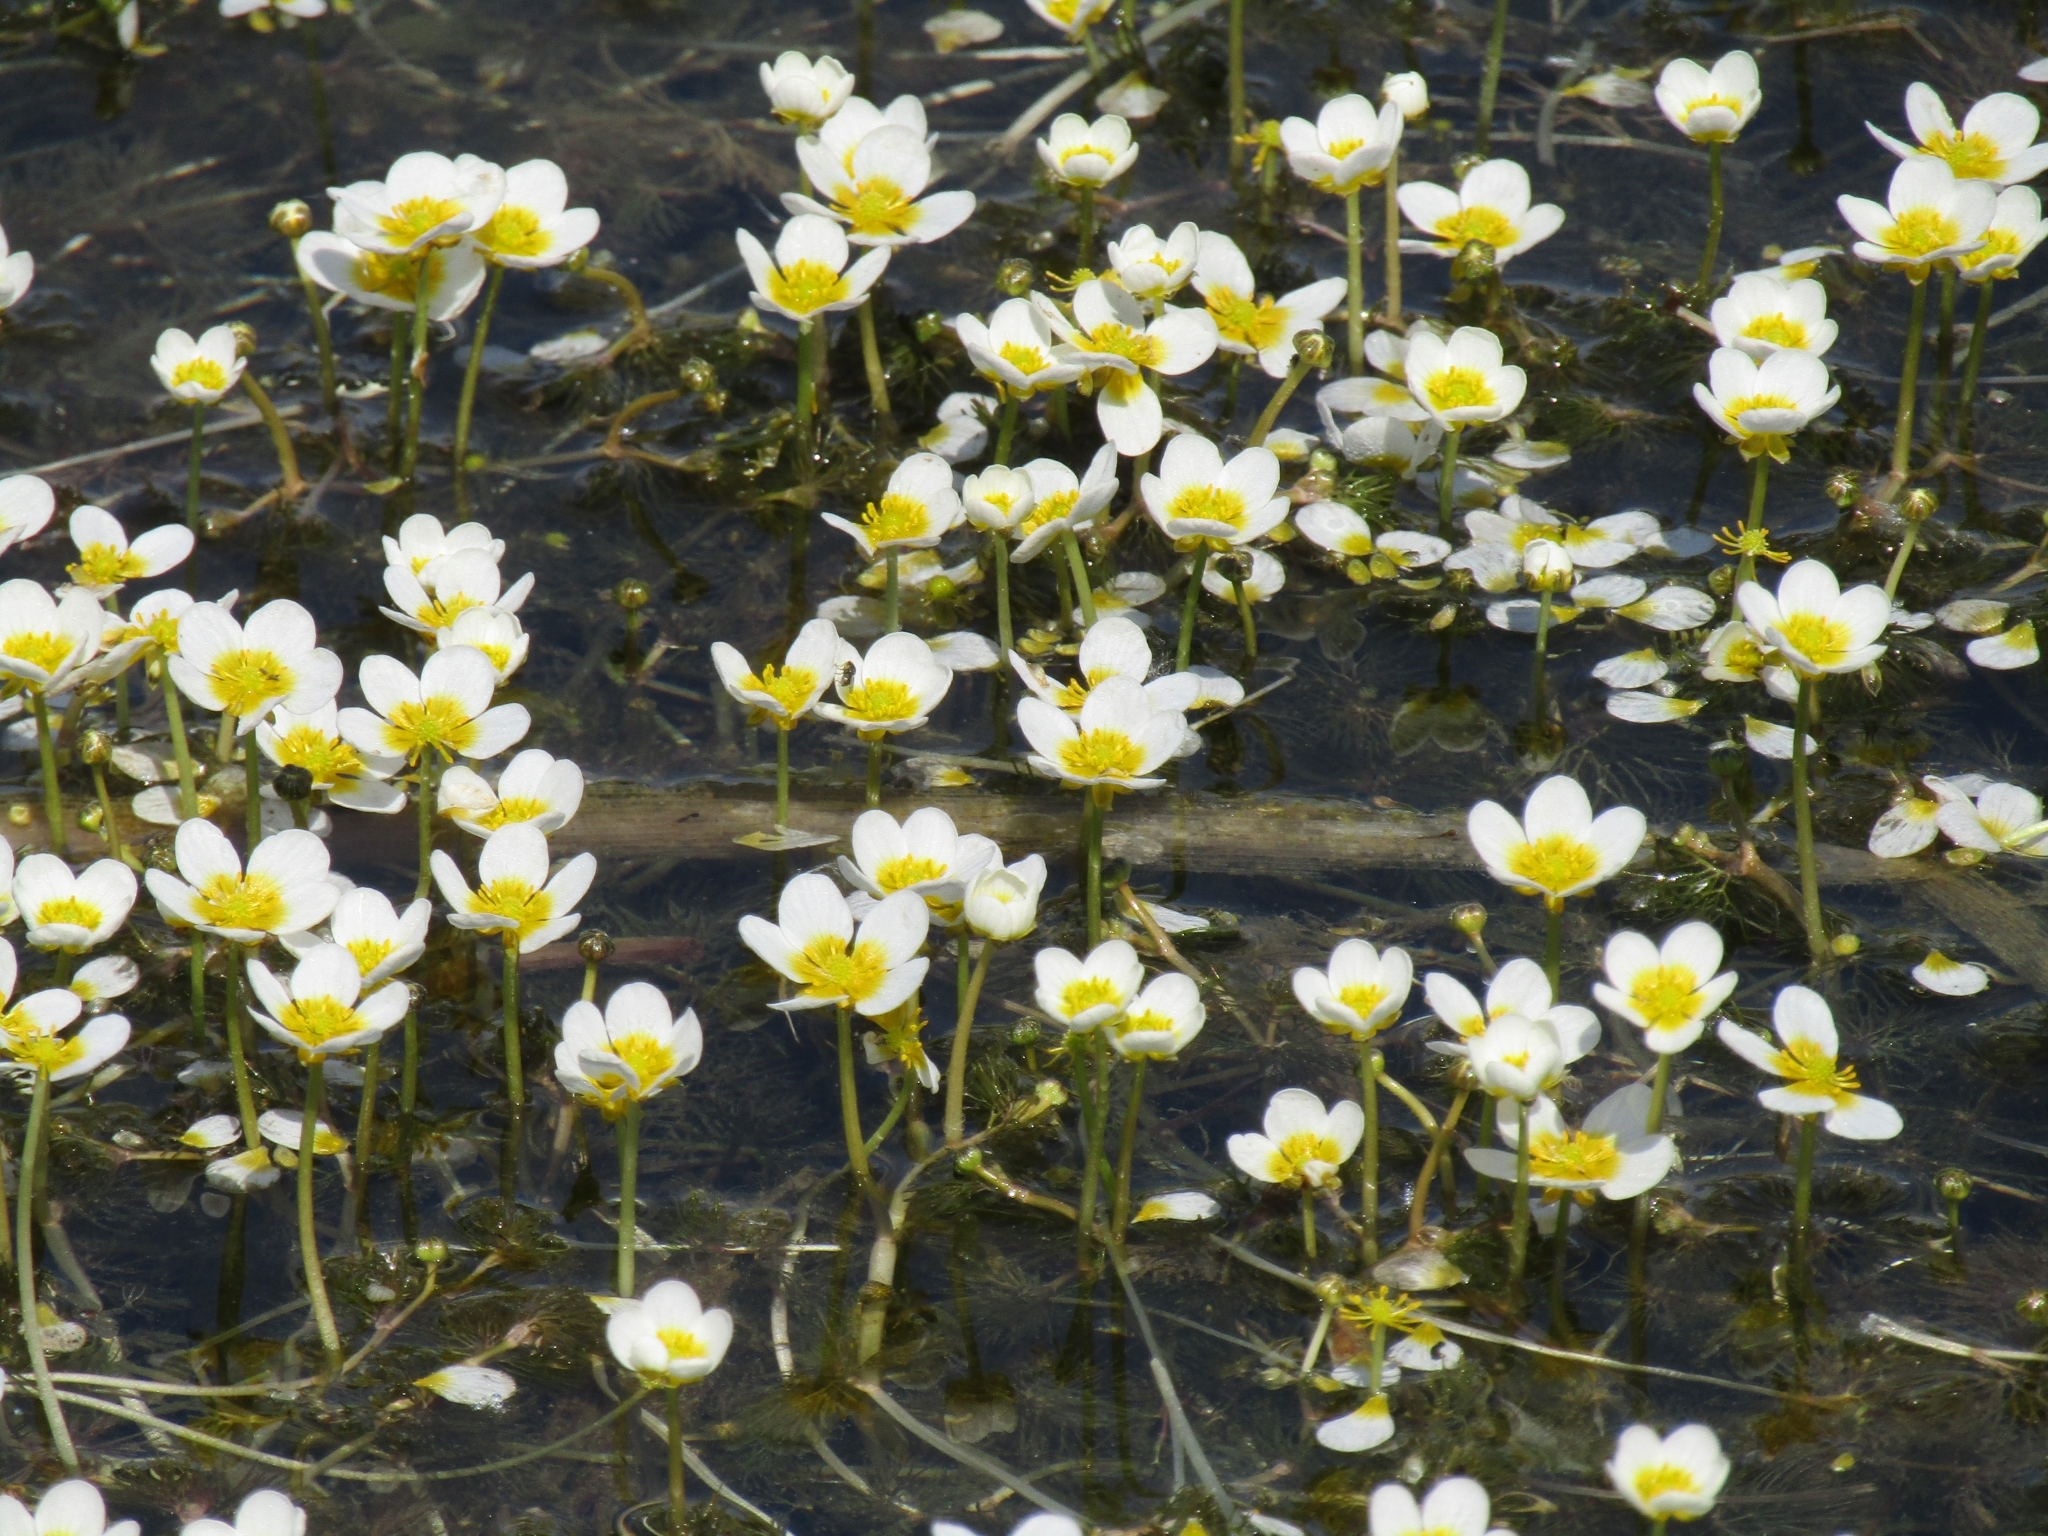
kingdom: Plantae
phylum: Tracheophyta
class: Magnoliopsida
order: Ranunculales
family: Ranunculaceae
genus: Ranunculus
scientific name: Ranunculus circinatus
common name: Fan-leaved water-crowfoot
